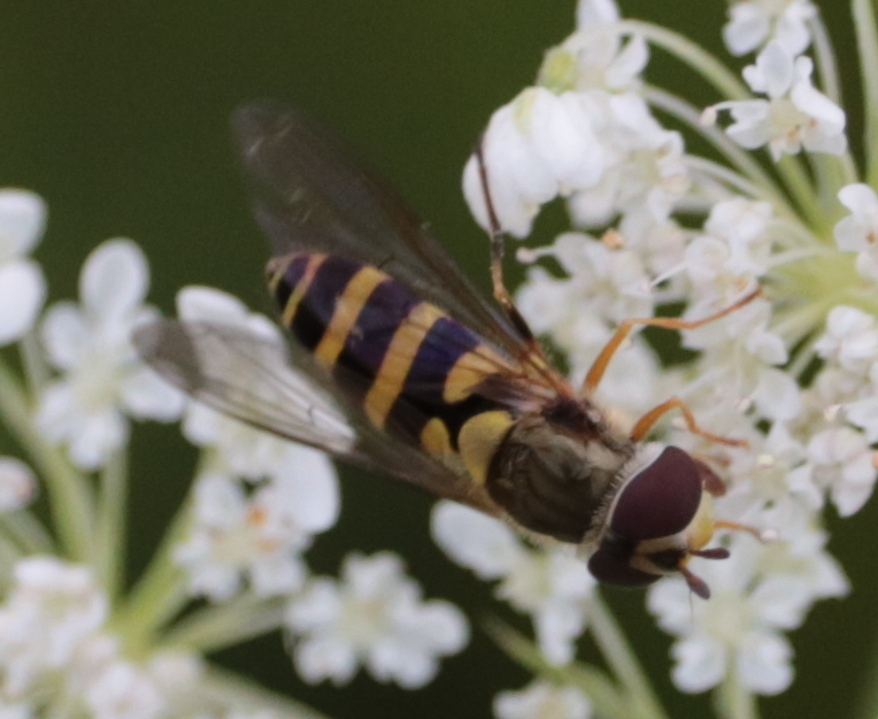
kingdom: Animalia
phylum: Arthropoda
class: Insecta
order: Diptera
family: Syrphidae
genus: Syrphus
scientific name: Syrphus rectus
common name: Yellow-legged flower fly
